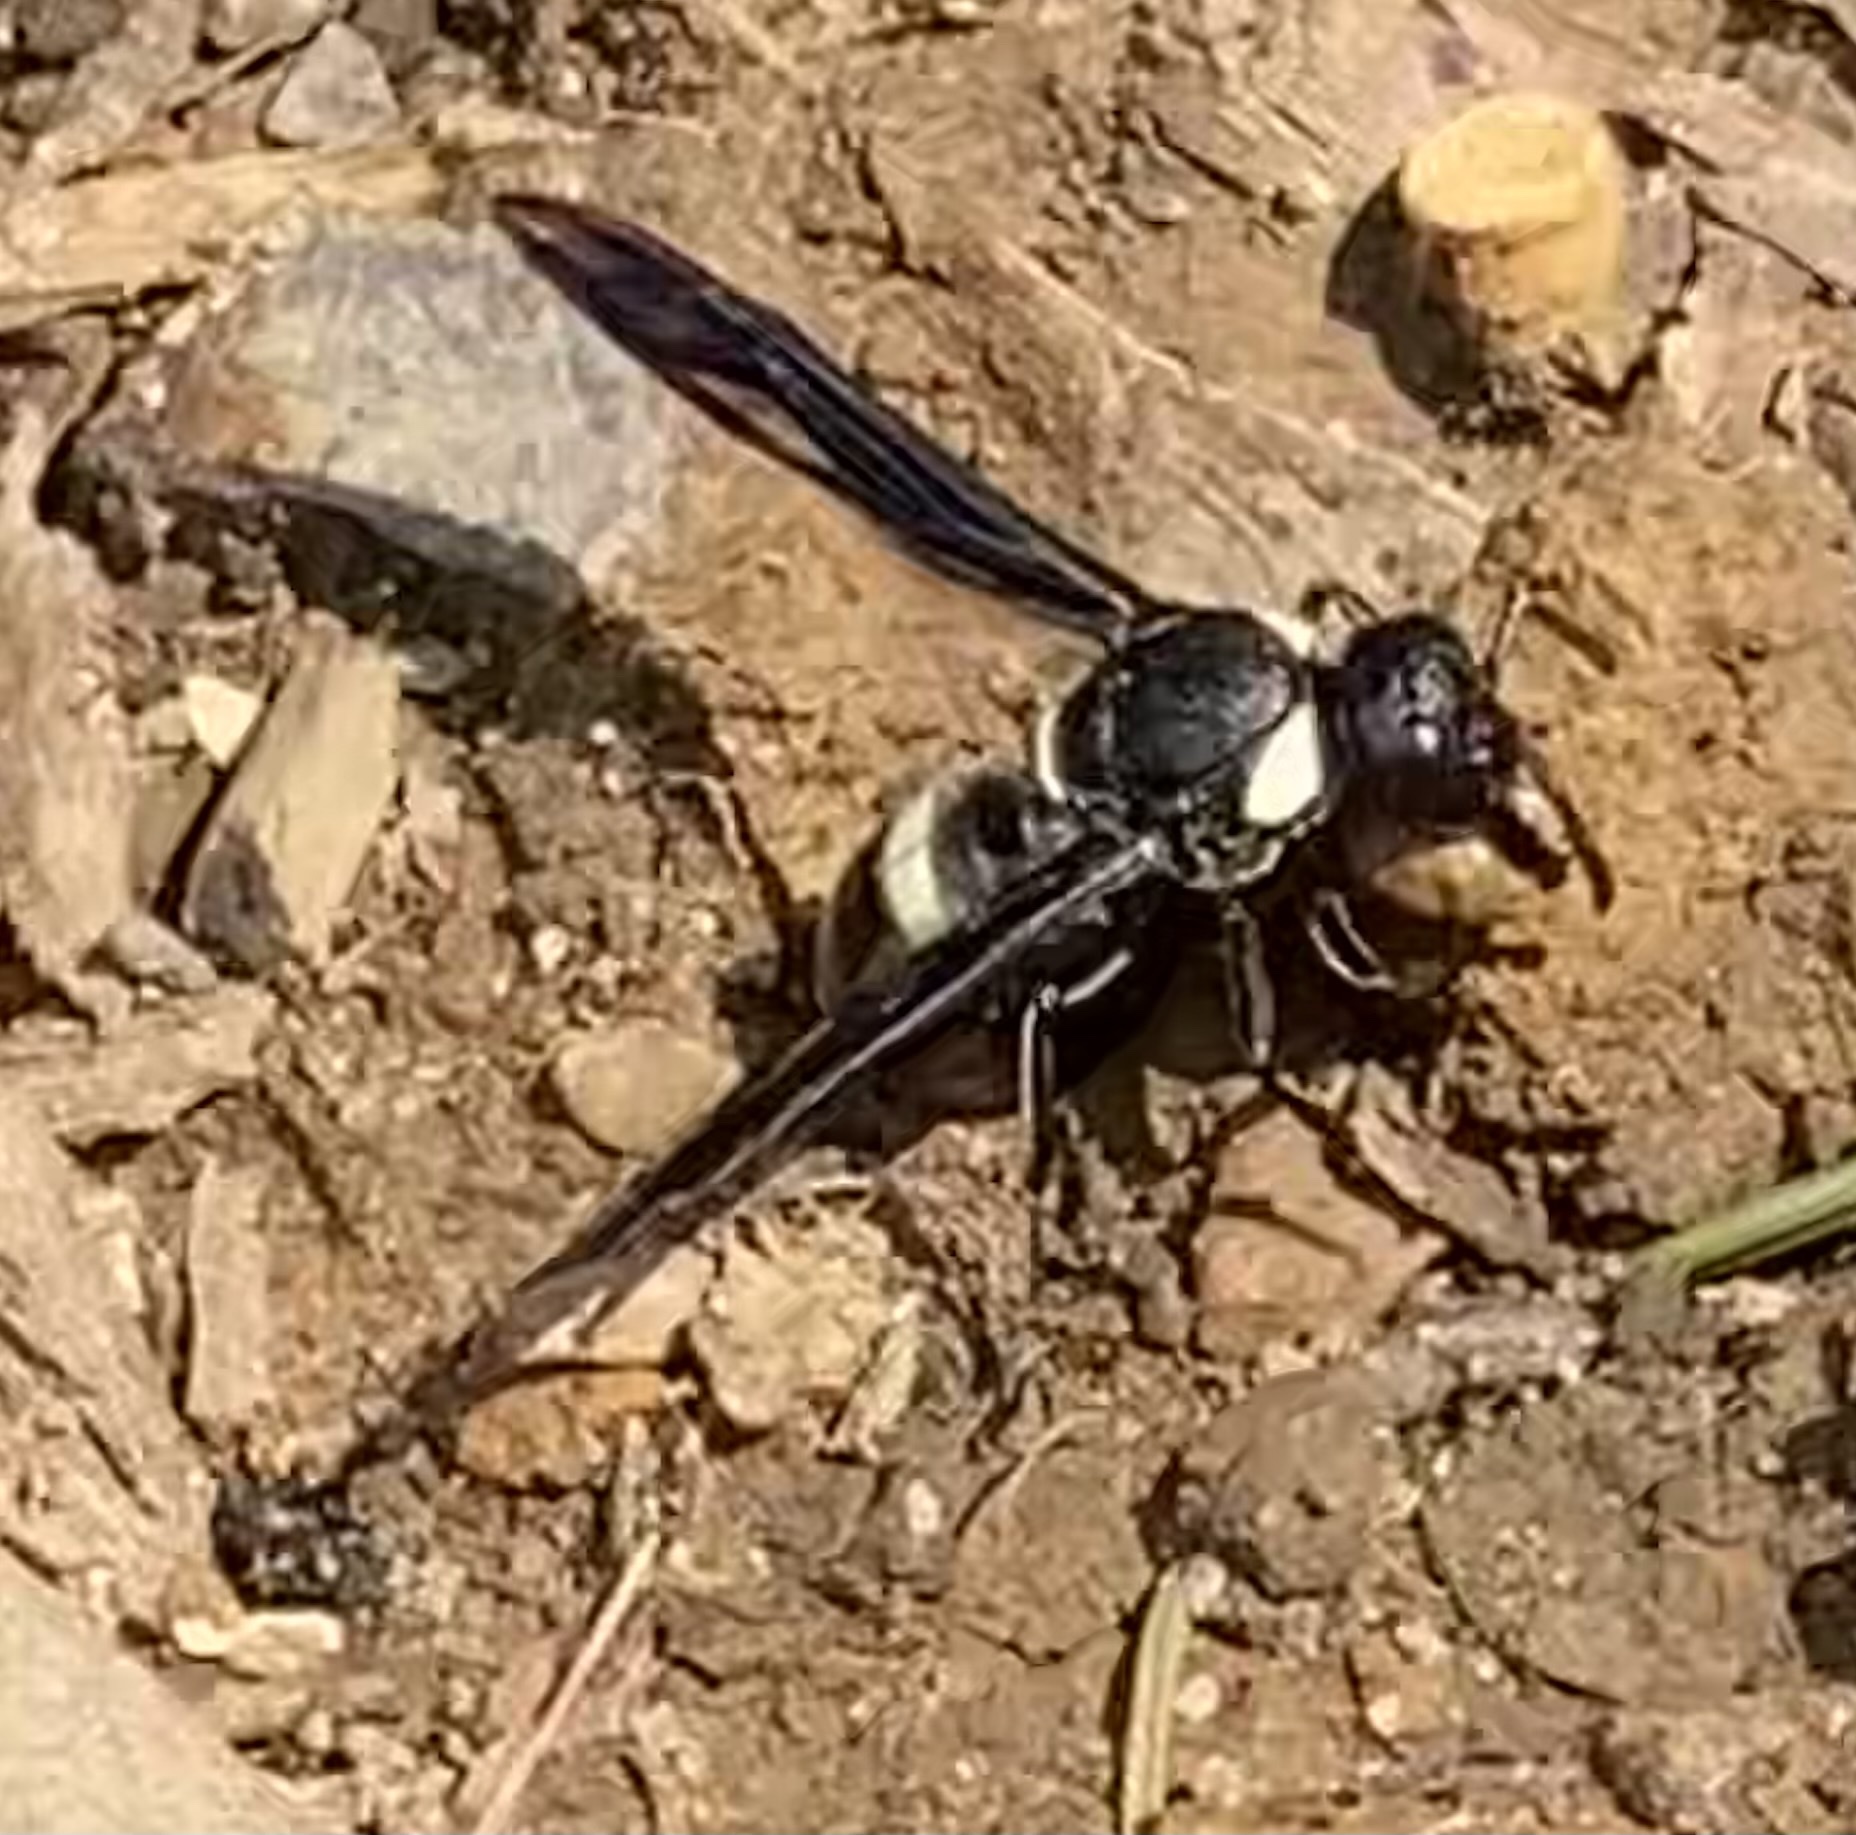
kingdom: Animalia
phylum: Arthropoda
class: Insecta
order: Hymenoptera
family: Eumenidae
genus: Monobia
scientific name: Monobia quadridens
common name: Four-toothed mason wasp
